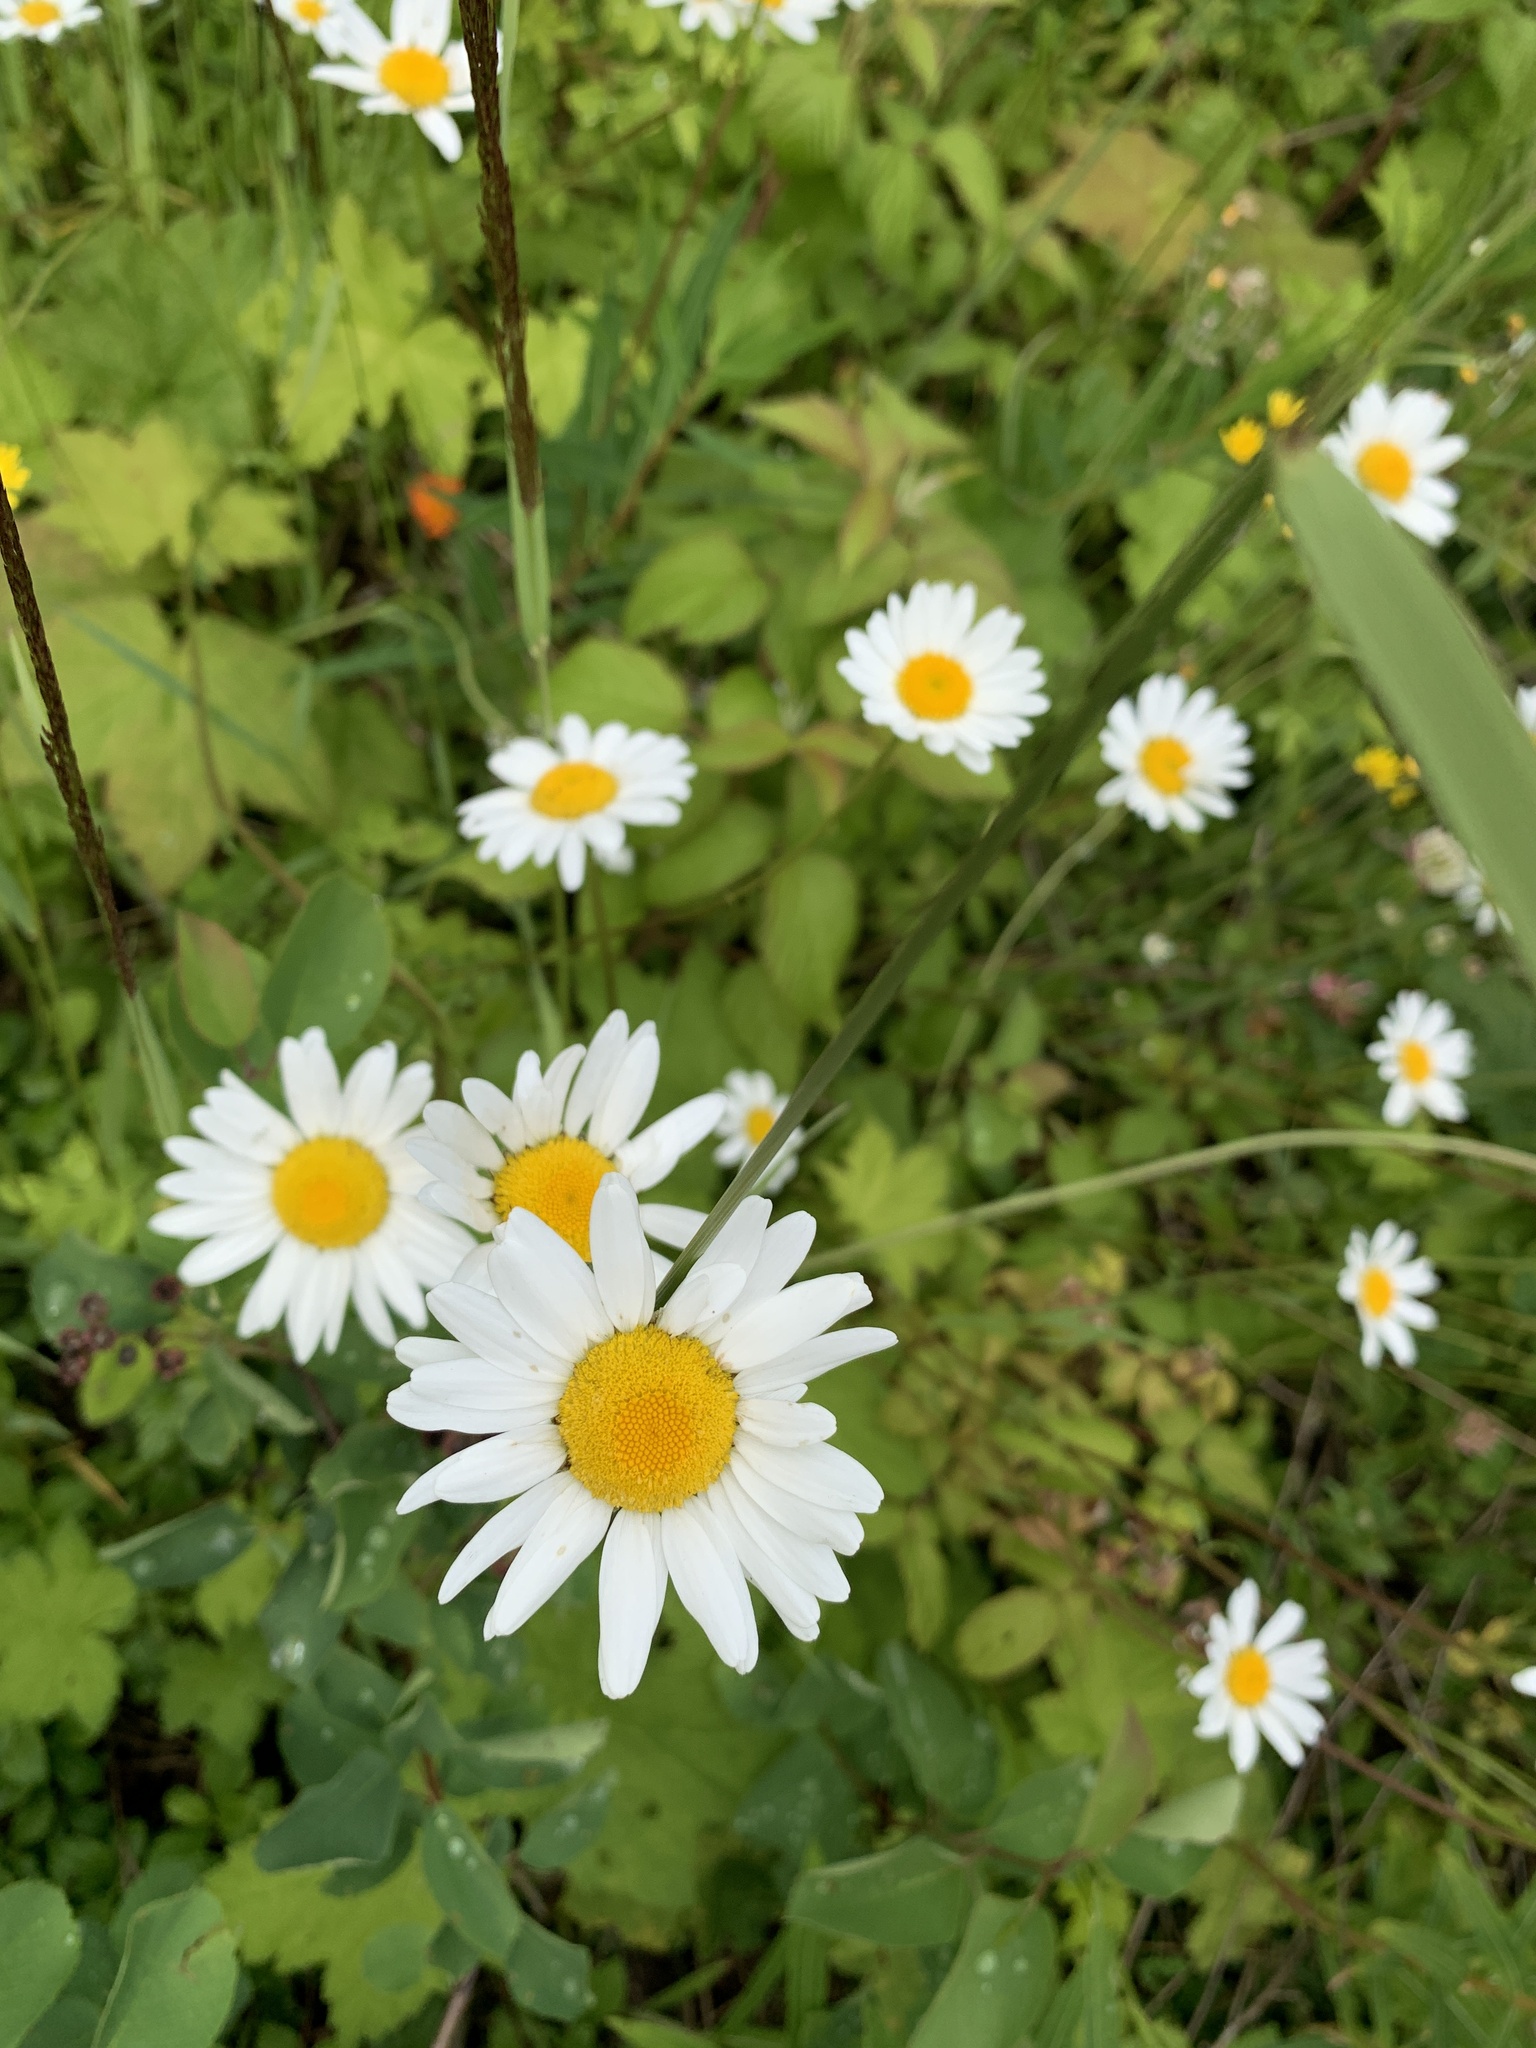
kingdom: Plantae
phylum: Tracheophyta
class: Magnoliopsida
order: Asterales
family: Asteraceae
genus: Leucanthemum
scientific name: Leucanthemum vulgare
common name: Oxeye daisy
